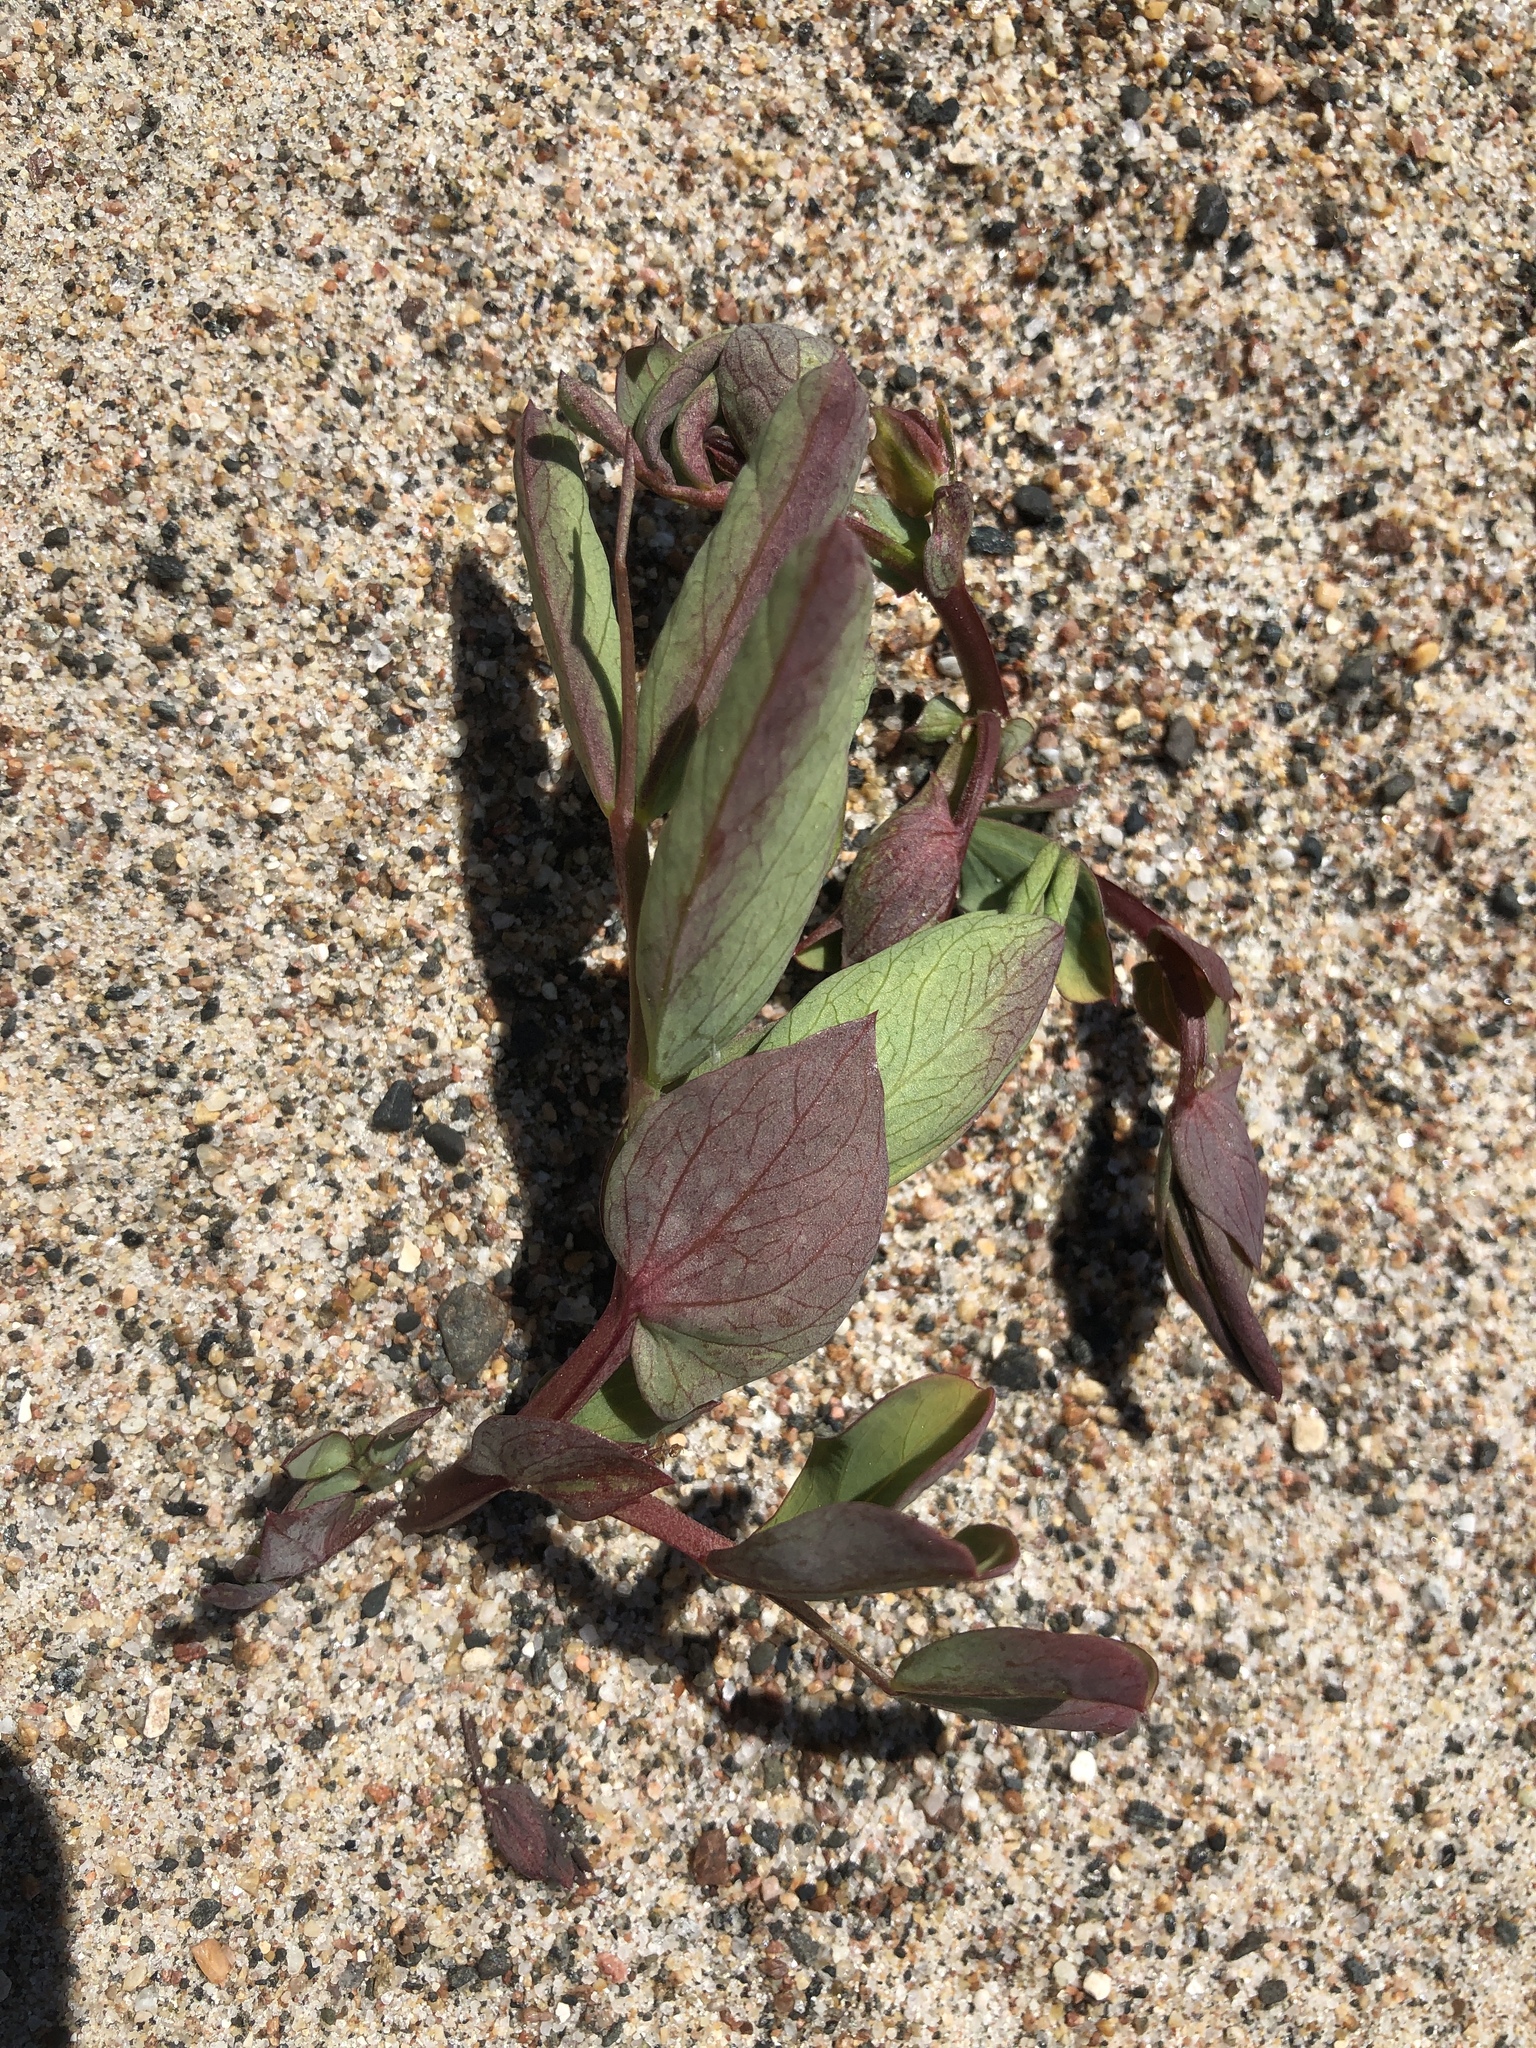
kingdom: Plantae
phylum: Tracheophyta
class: Magnoliopsida
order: Fabales
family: Fabaceae
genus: Lathyrus
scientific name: Lathyrus japonicus
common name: Sea pea
